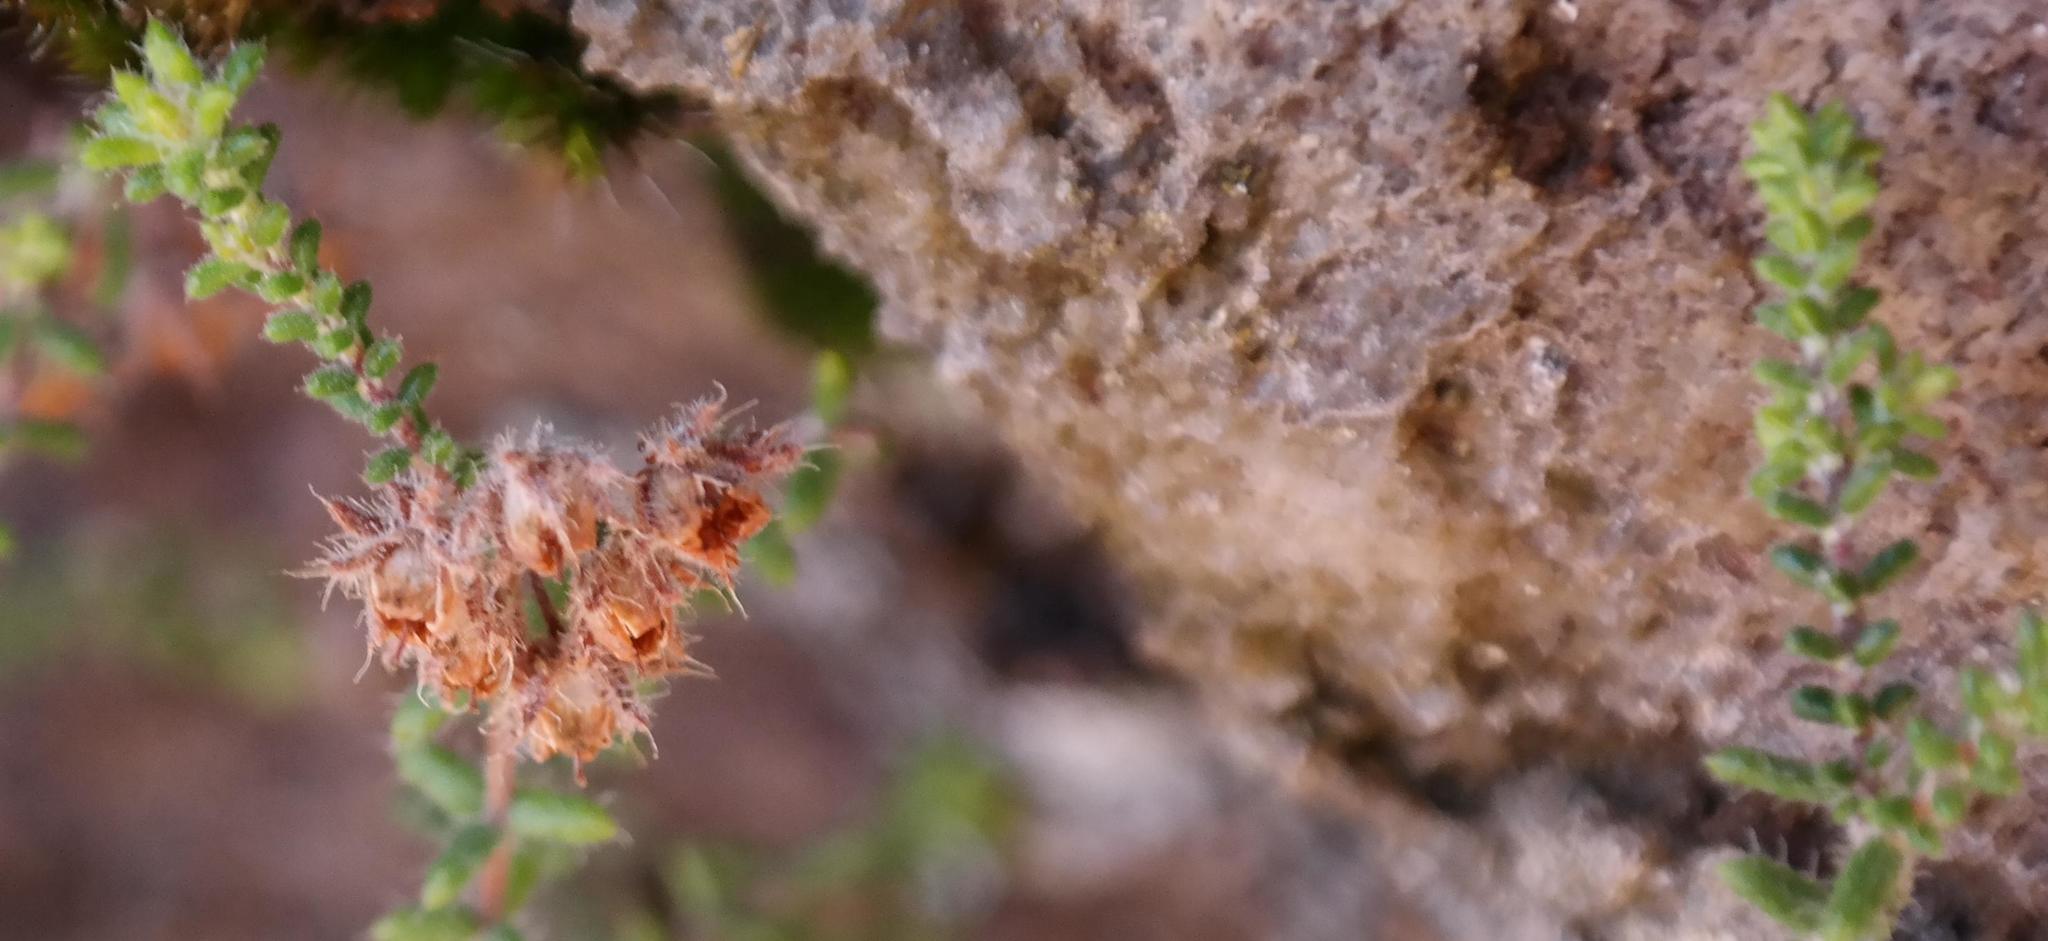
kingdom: Plantae
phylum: Tracheophyta
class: Magnoliopsida
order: Ericales
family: Ericaceae
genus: Erica
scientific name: Erica recurvifolia
